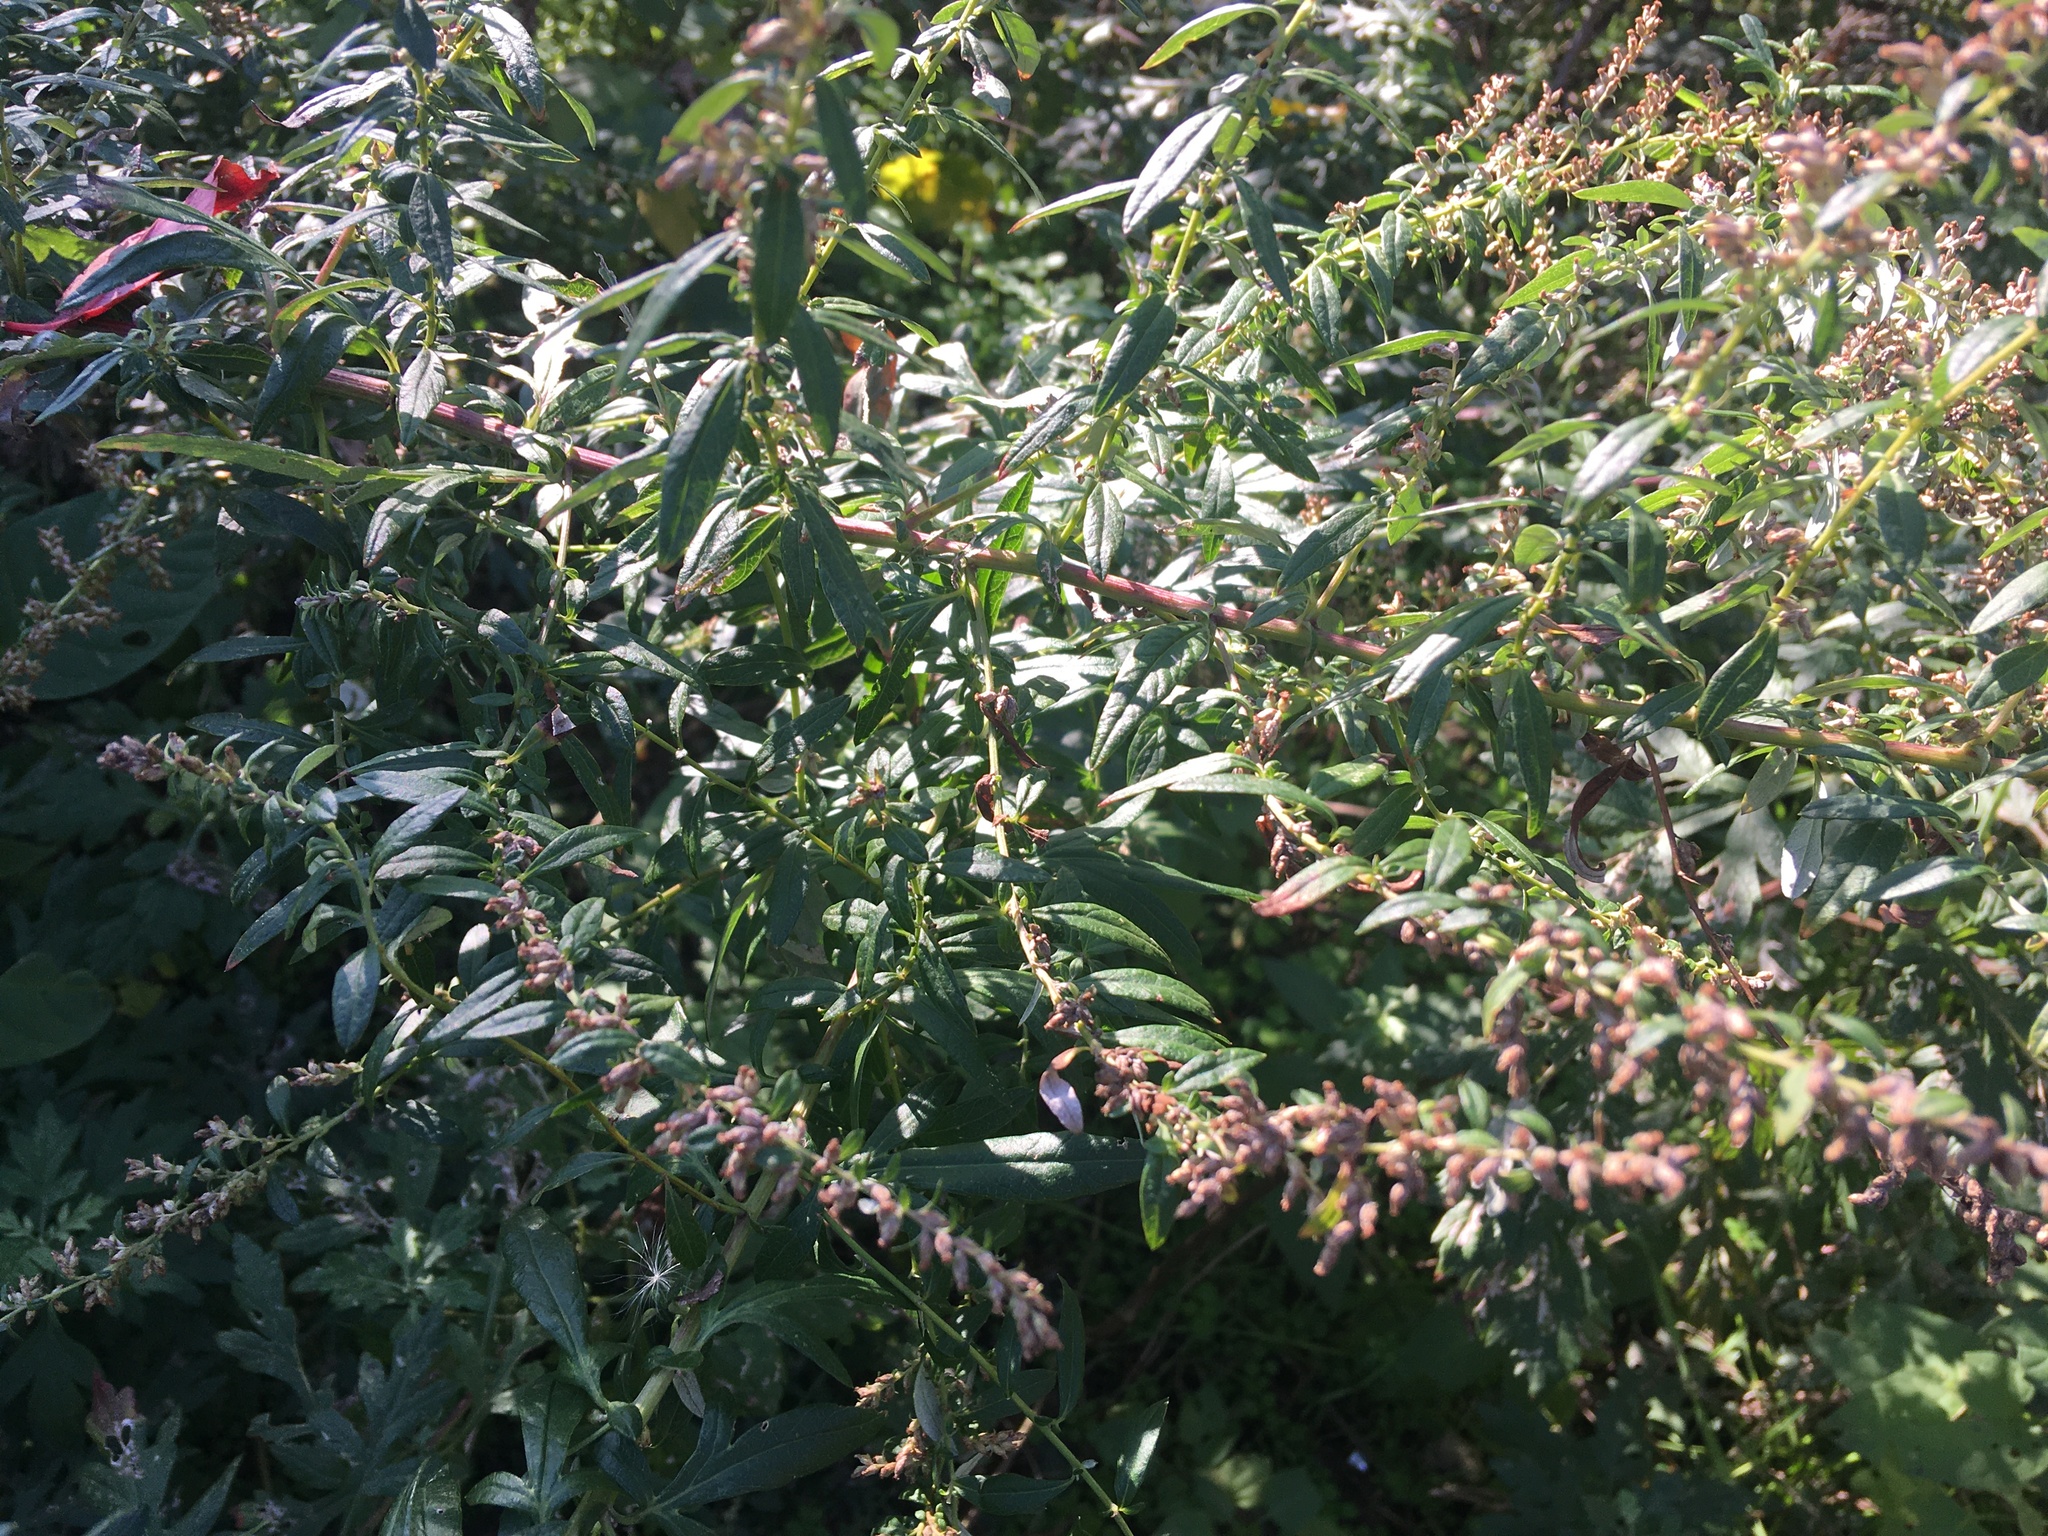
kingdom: Plantae
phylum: Tracheophyta
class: Magnoliopsida
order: Asterales
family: Asteraceae
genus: Artemisia
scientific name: Artemisia vulgaris
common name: Mugwort
